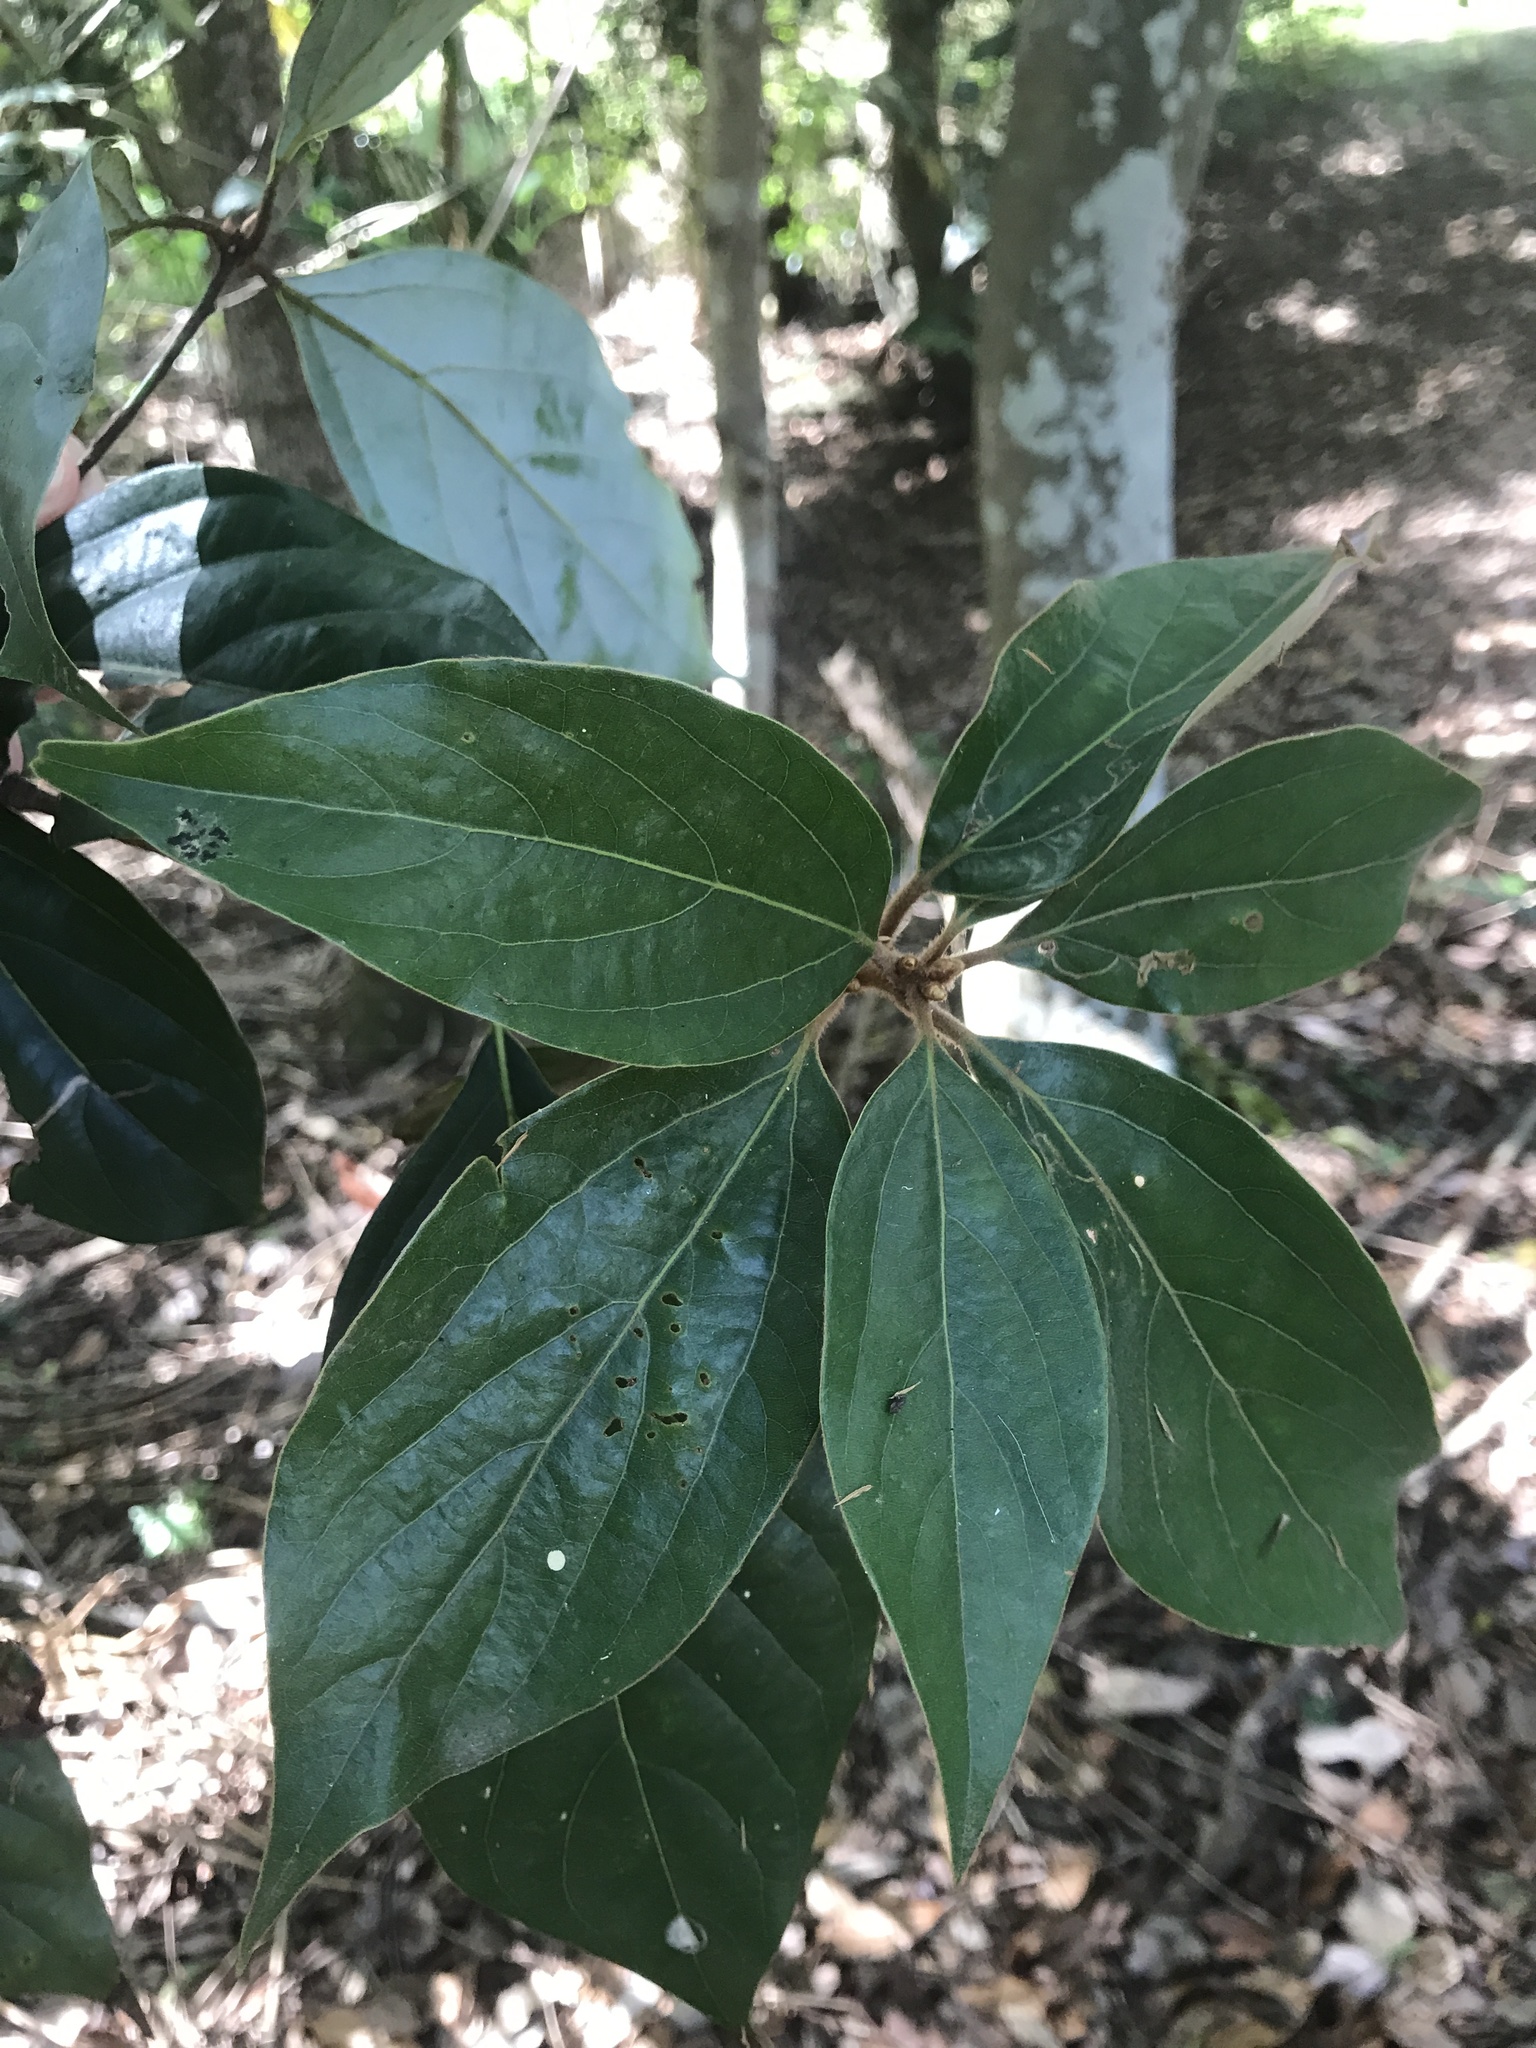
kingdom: Plantae
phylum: Tracheophyta
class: Magnoliopsida
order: Laurales
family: Lauraceae
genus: Neolitsea
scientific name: Neolitsea dealbata
